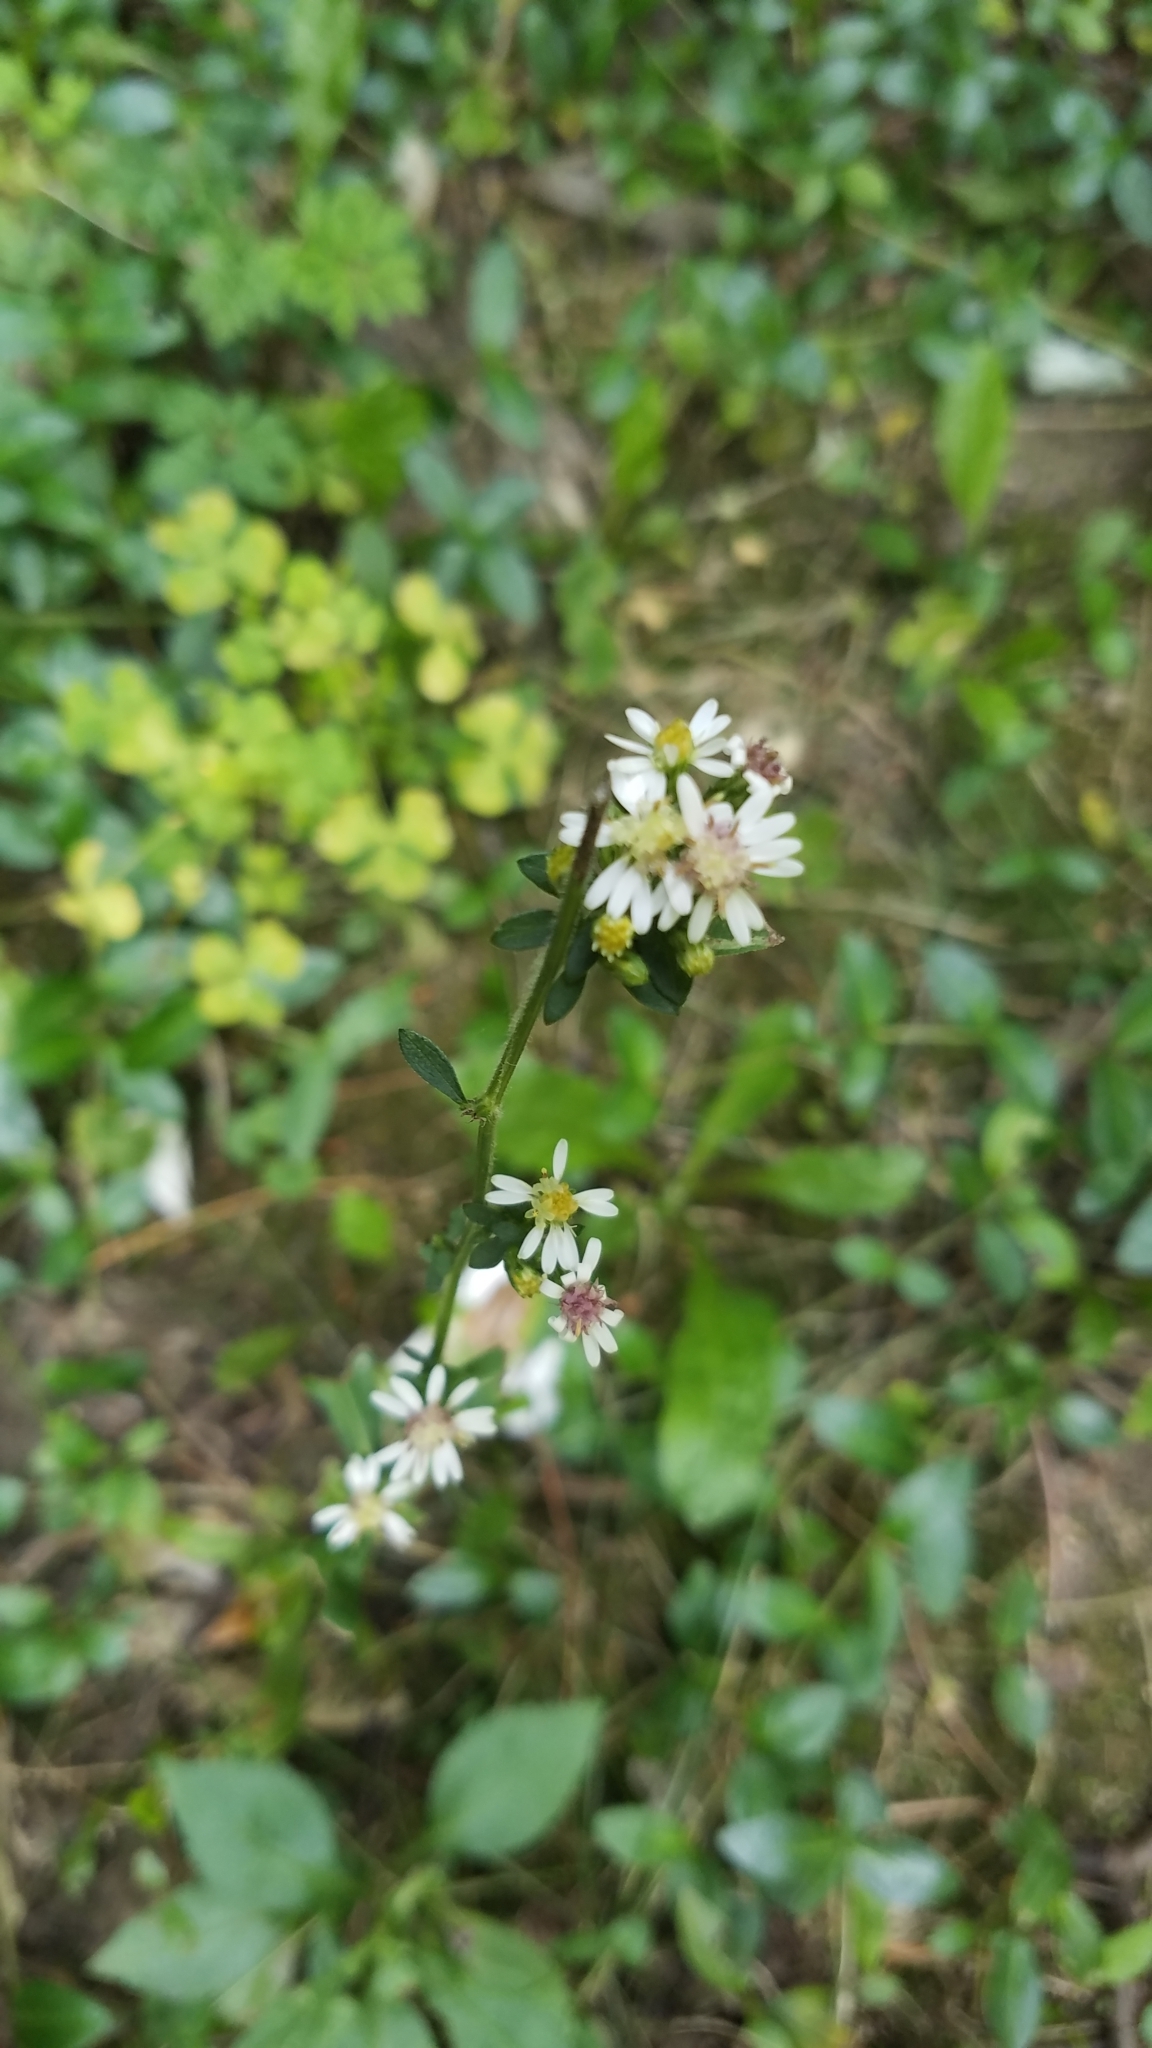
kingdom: Plantae
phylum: Tracheophyta
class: Magnoliopsida
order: Asterales
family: Asteraceae
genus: Symphyotrichum
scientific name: Symphyotrichum lateriflorum
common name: Calico aster
